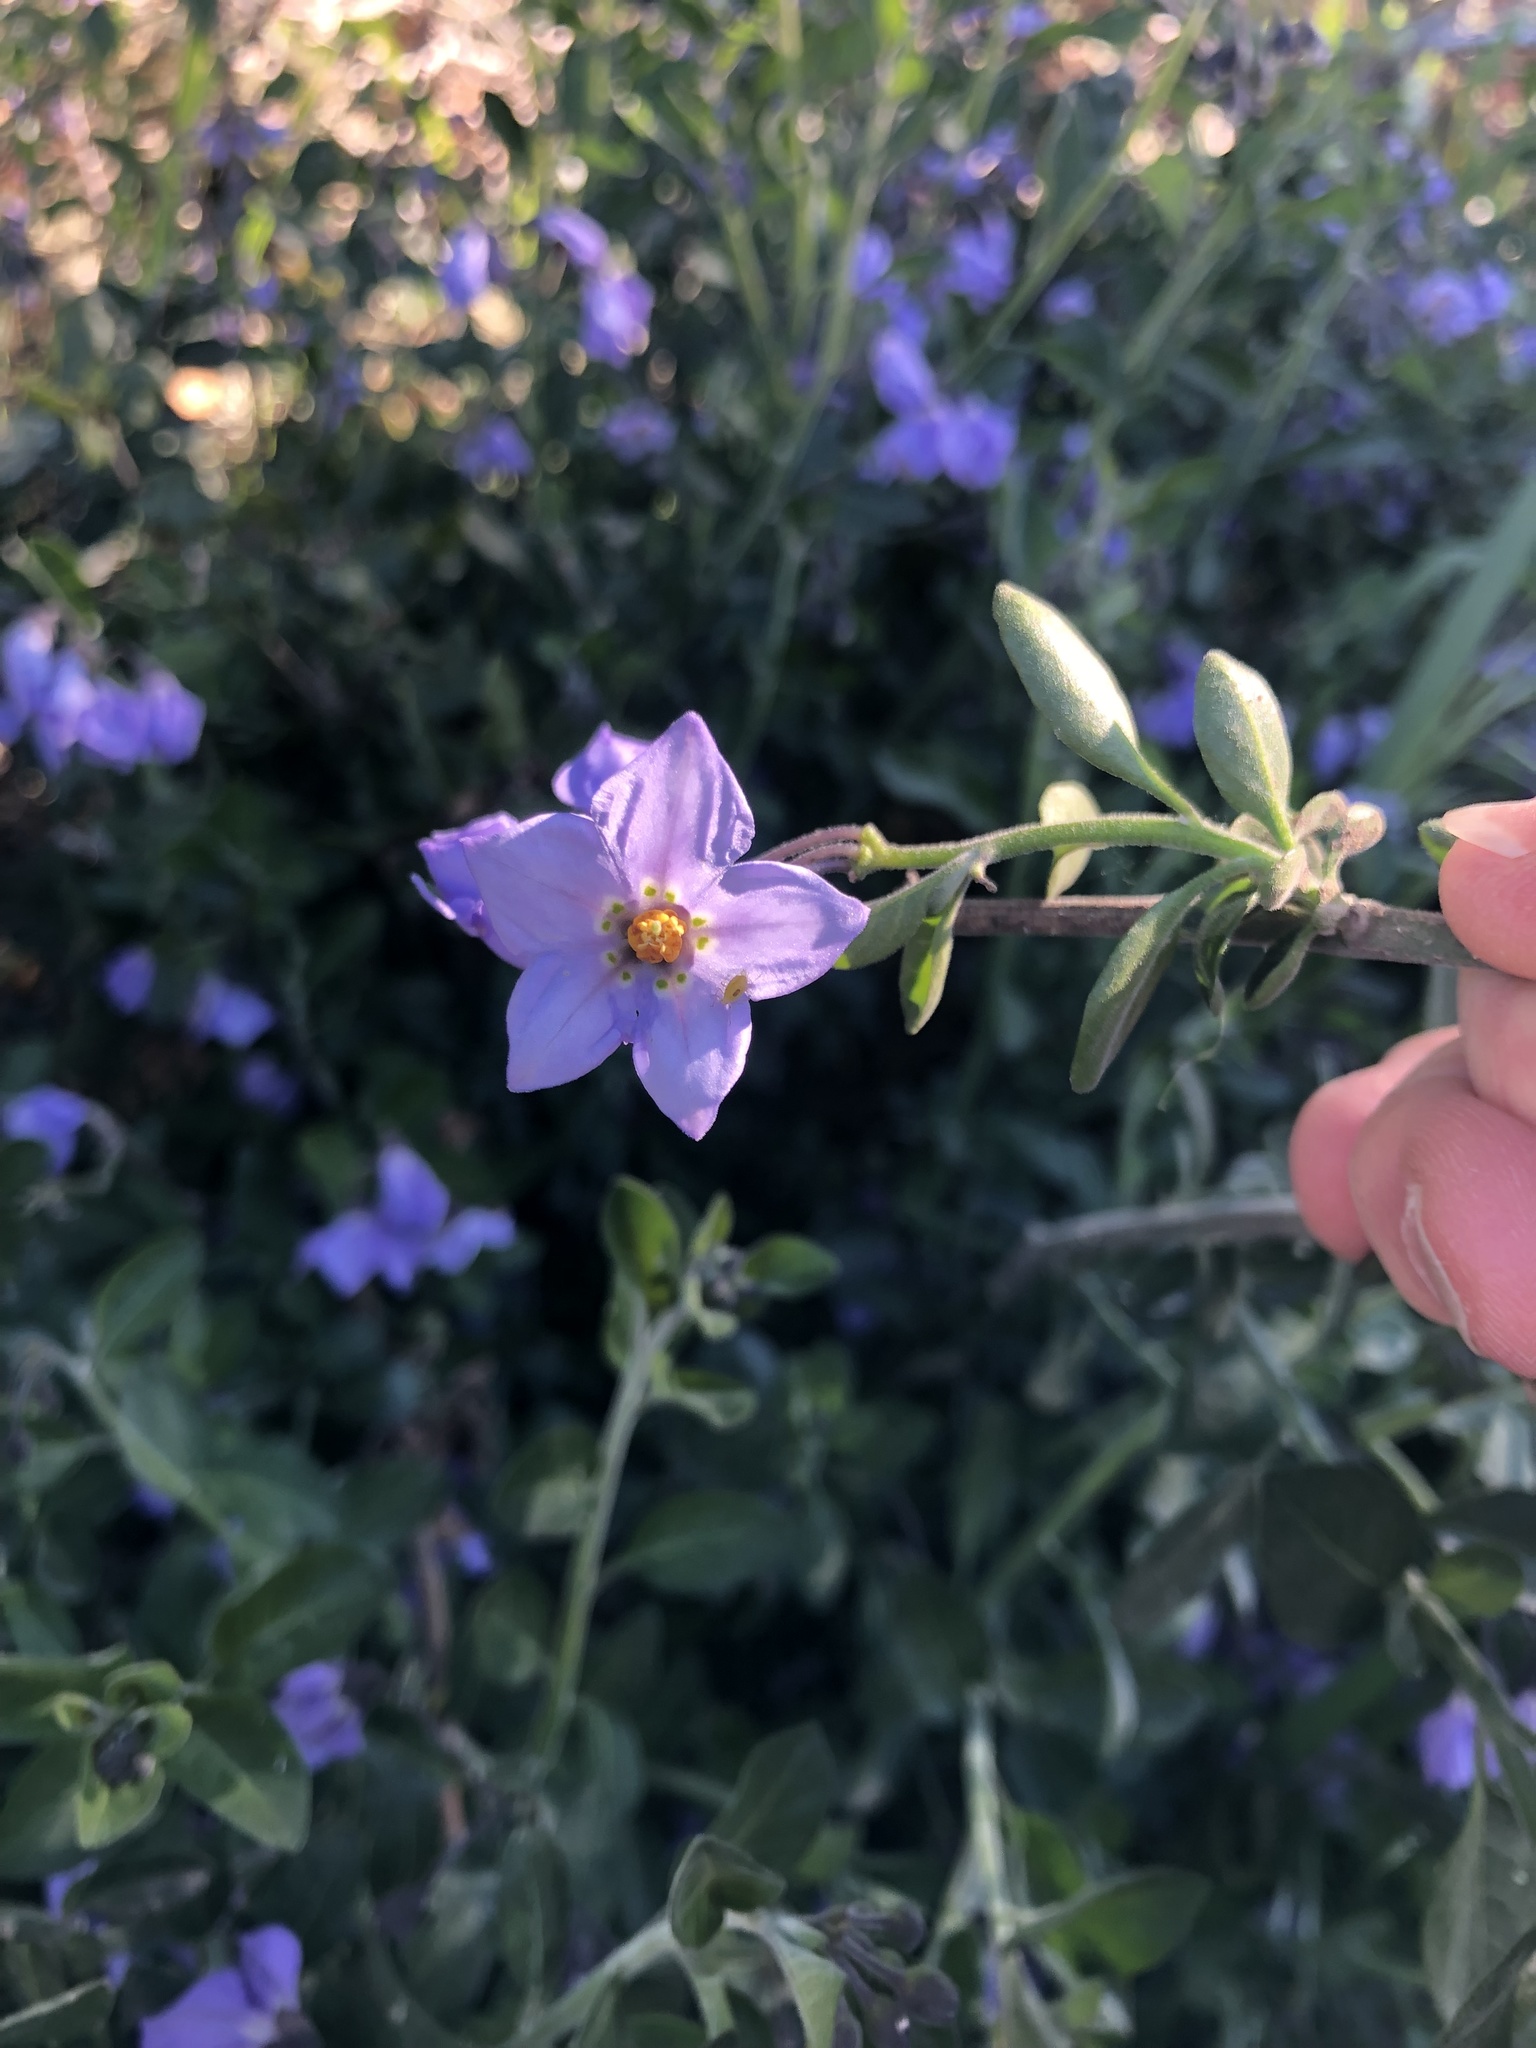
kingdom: Plantae
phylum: Tracheophyta
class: Magnoliopsida
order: Solanales
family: Solanaceae
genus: Solanum
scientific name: Solanum umbelliferum
